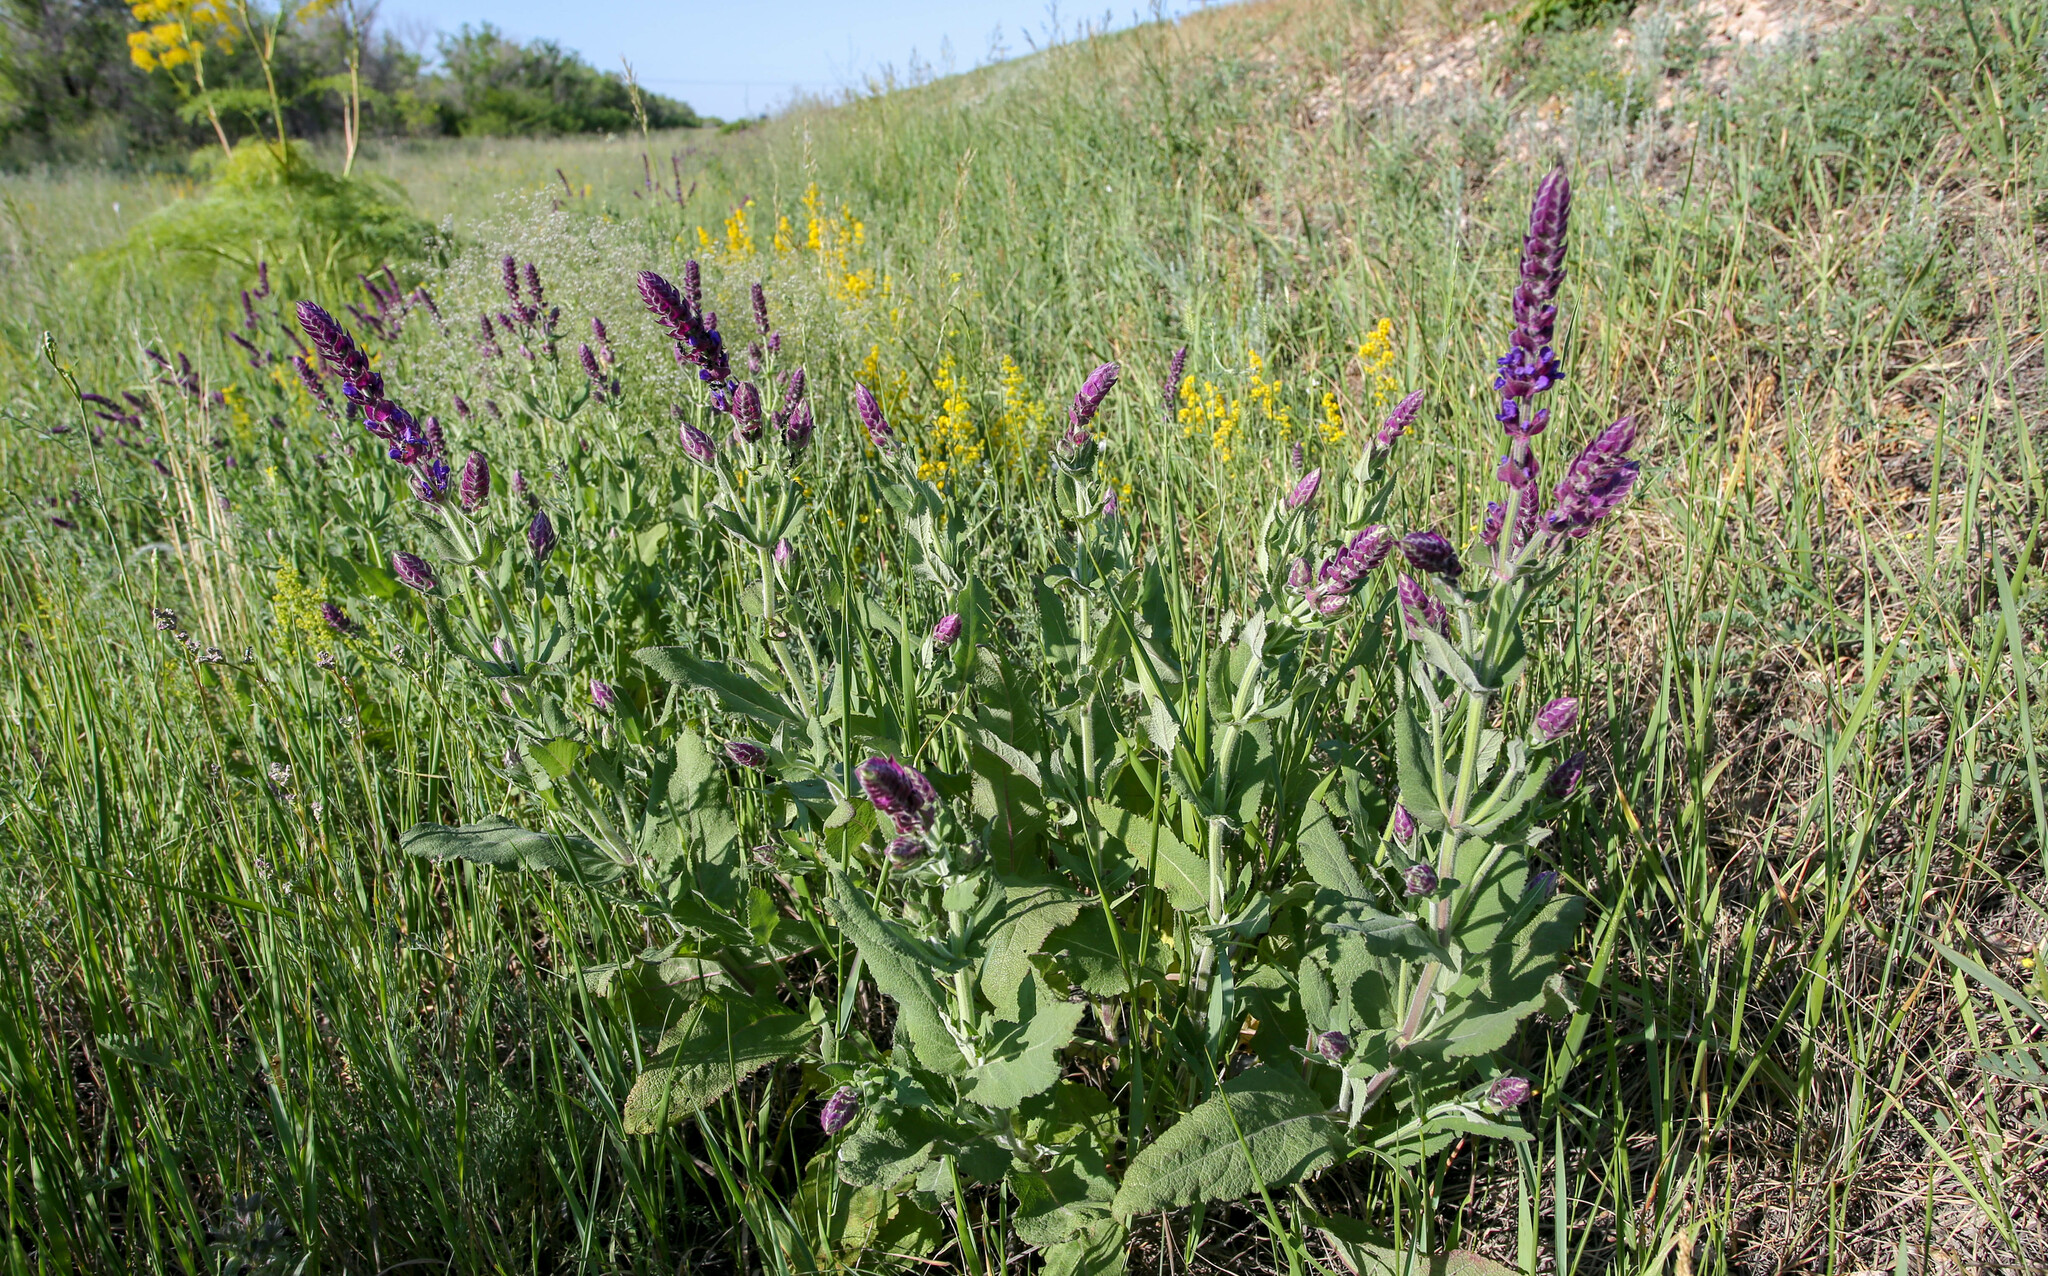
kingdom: Plantae
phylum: Tracheophyta
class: Magnoliopsida
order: Lamiales
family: Lamiaceae
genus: Salvia
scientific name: Salvia nemorosa
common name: Balkan clary
